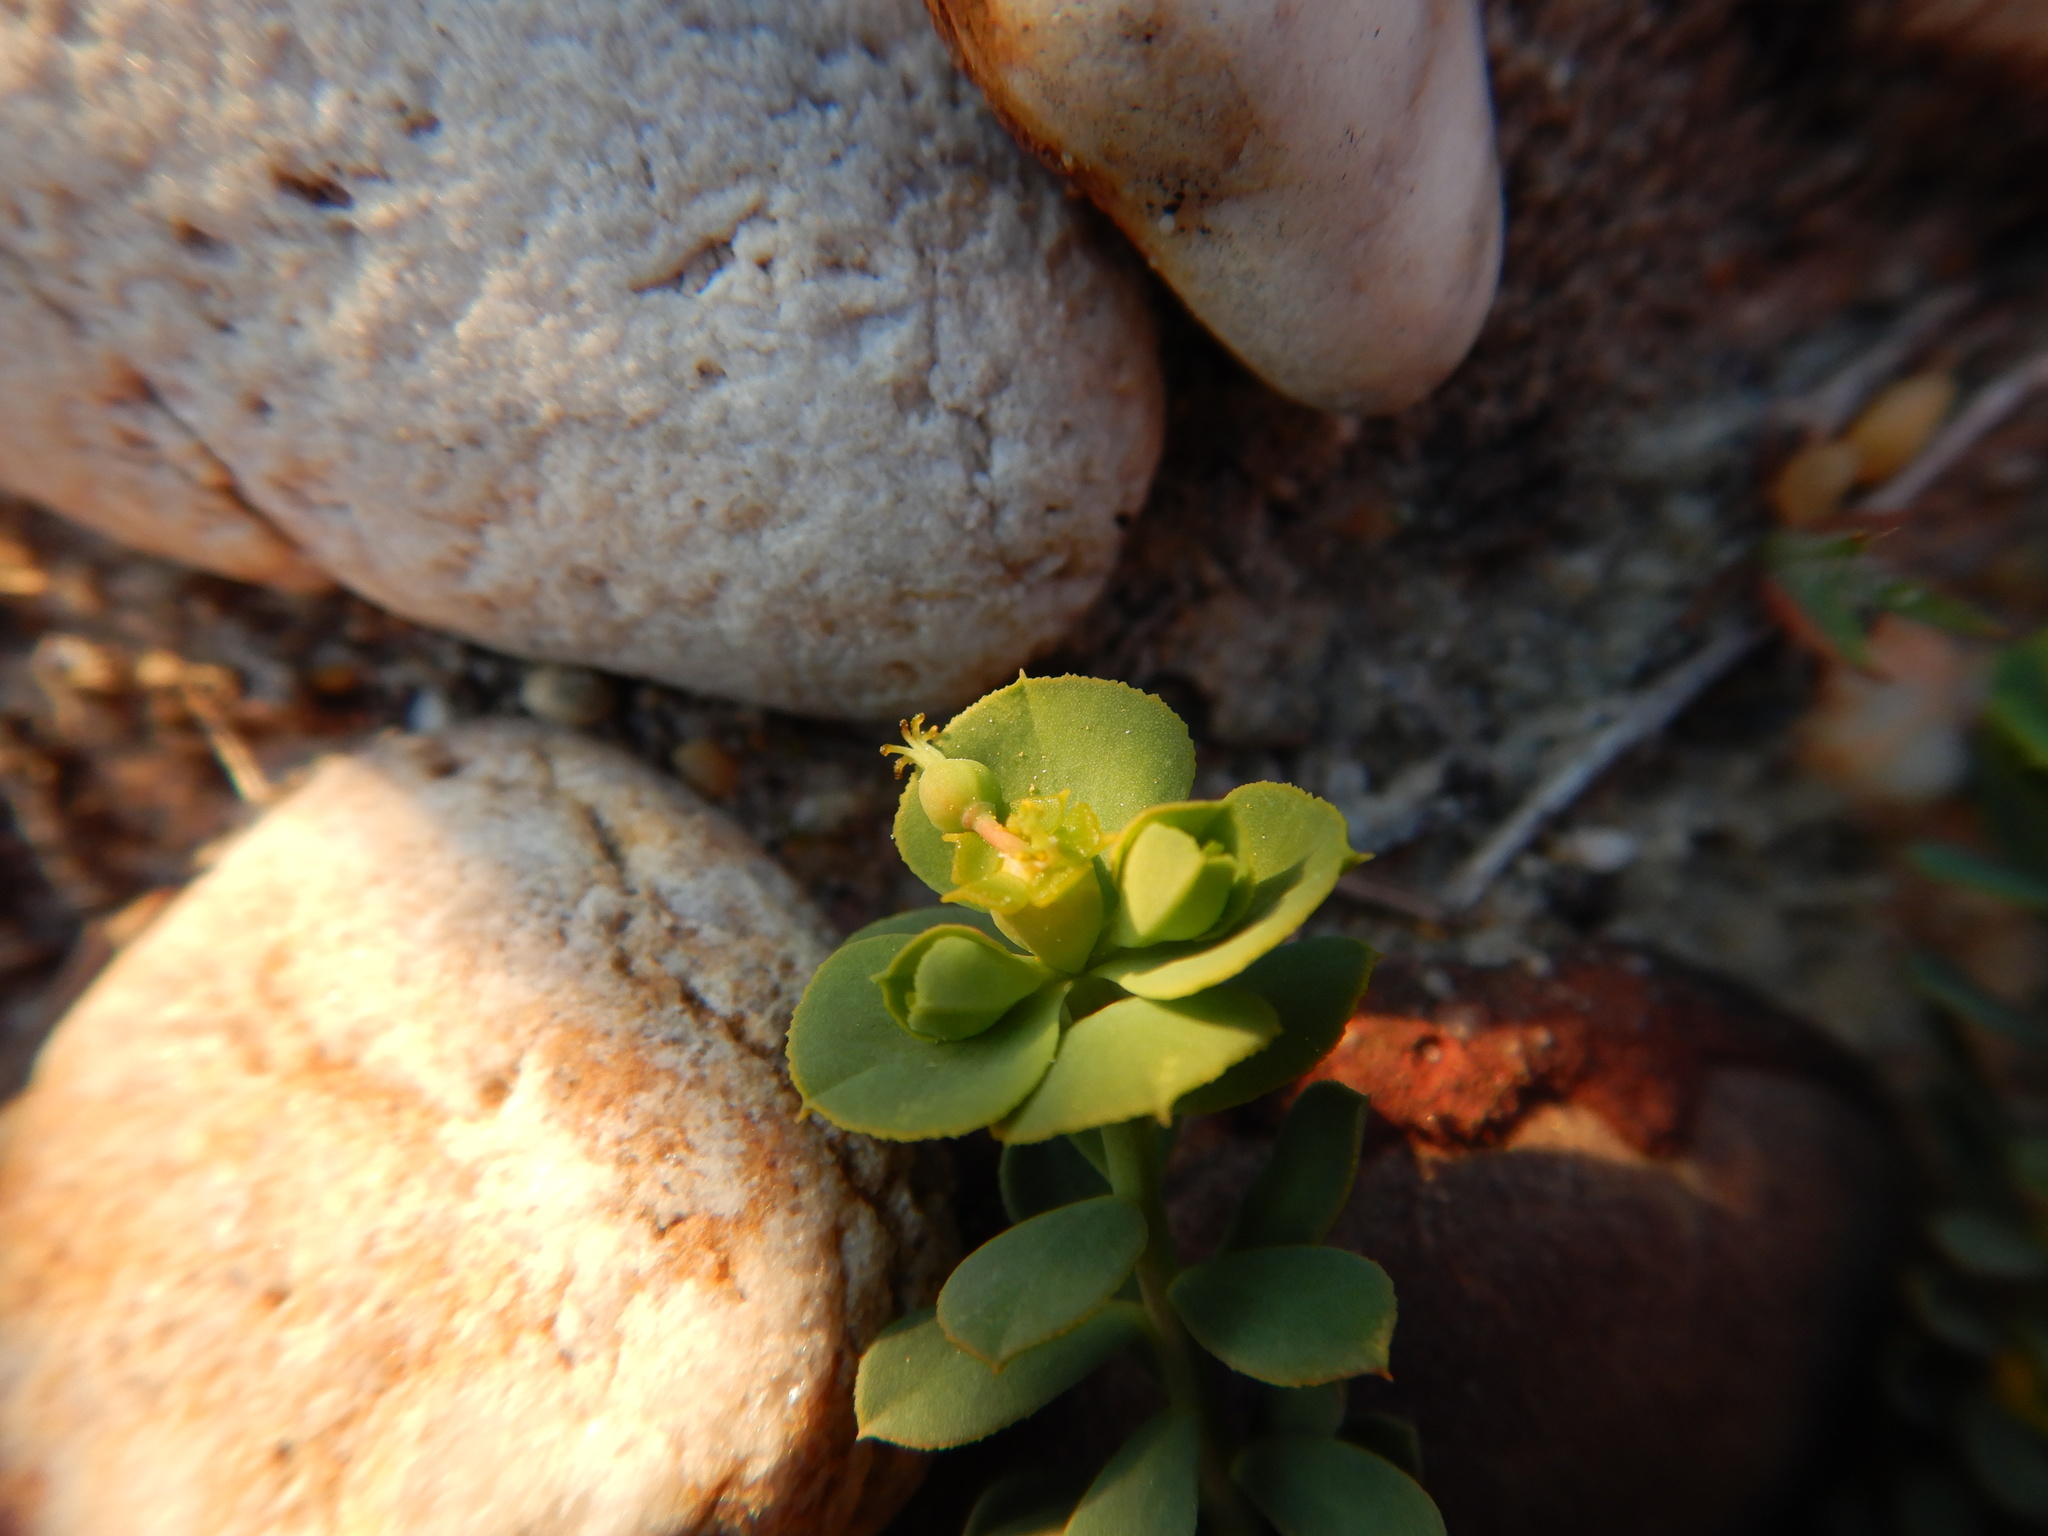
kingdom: Plantae
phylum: Tracheophyta
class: Magnoliopsida
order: Malpighiales
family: Euphorbiaceae
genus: Euphorbia
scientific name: Euphorbia transtagana
